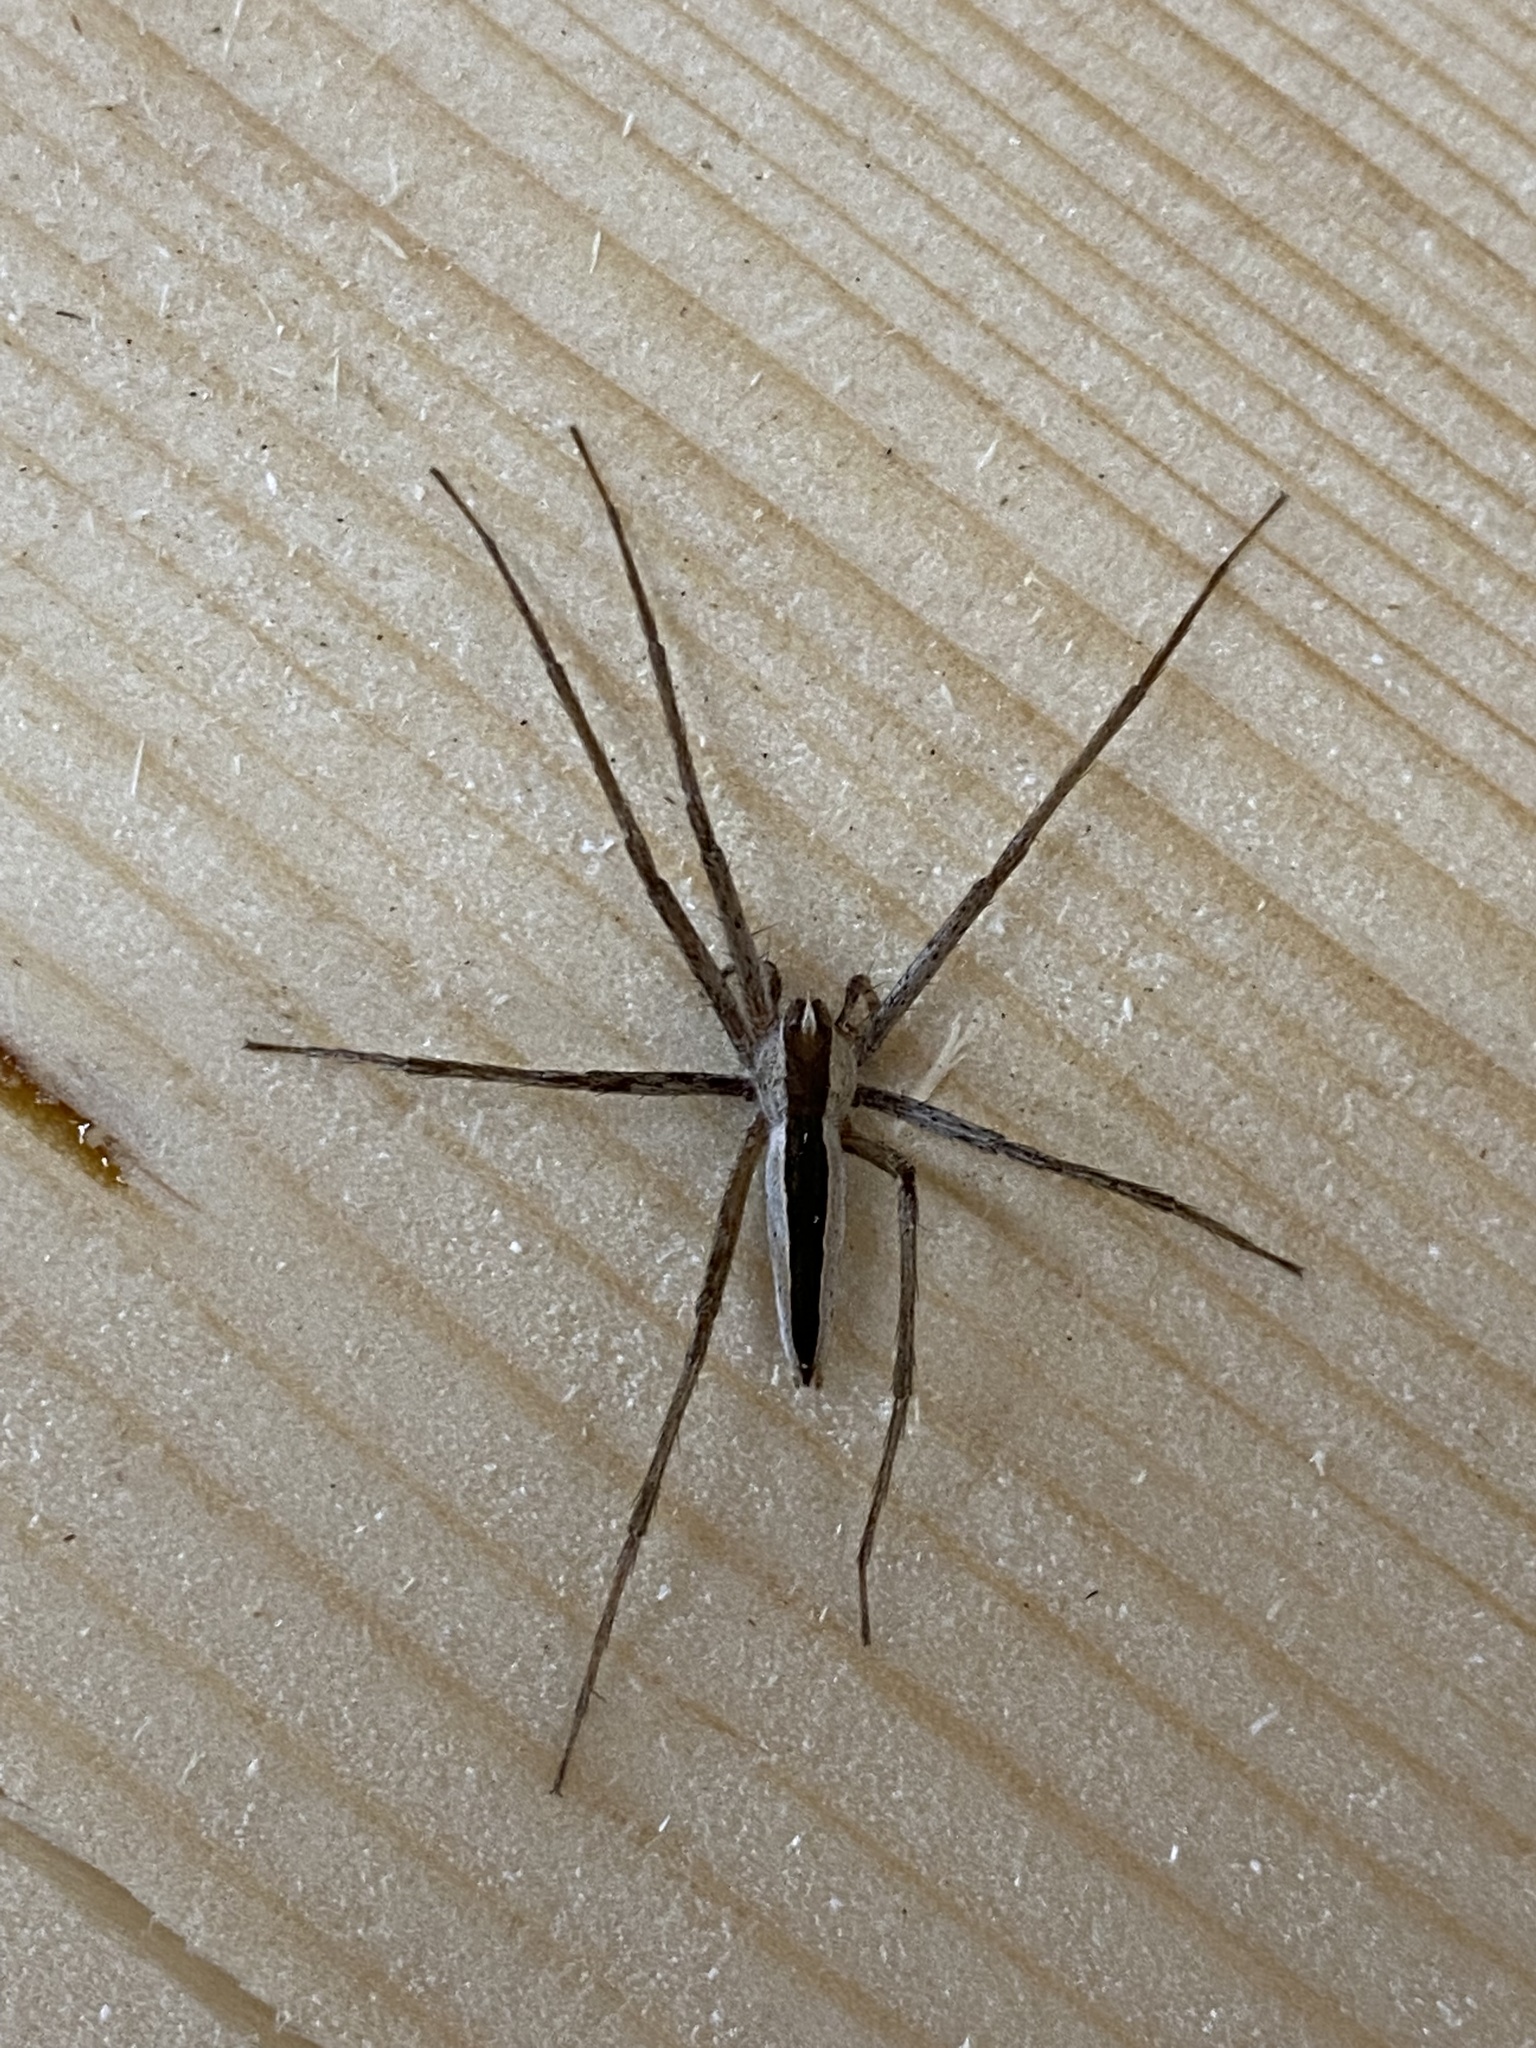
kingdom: Animalia
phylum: Arthropoda
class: Arachnida
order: Araneae
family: Pisauridae
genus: Pisaurina
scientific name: Pisaurina dubia
